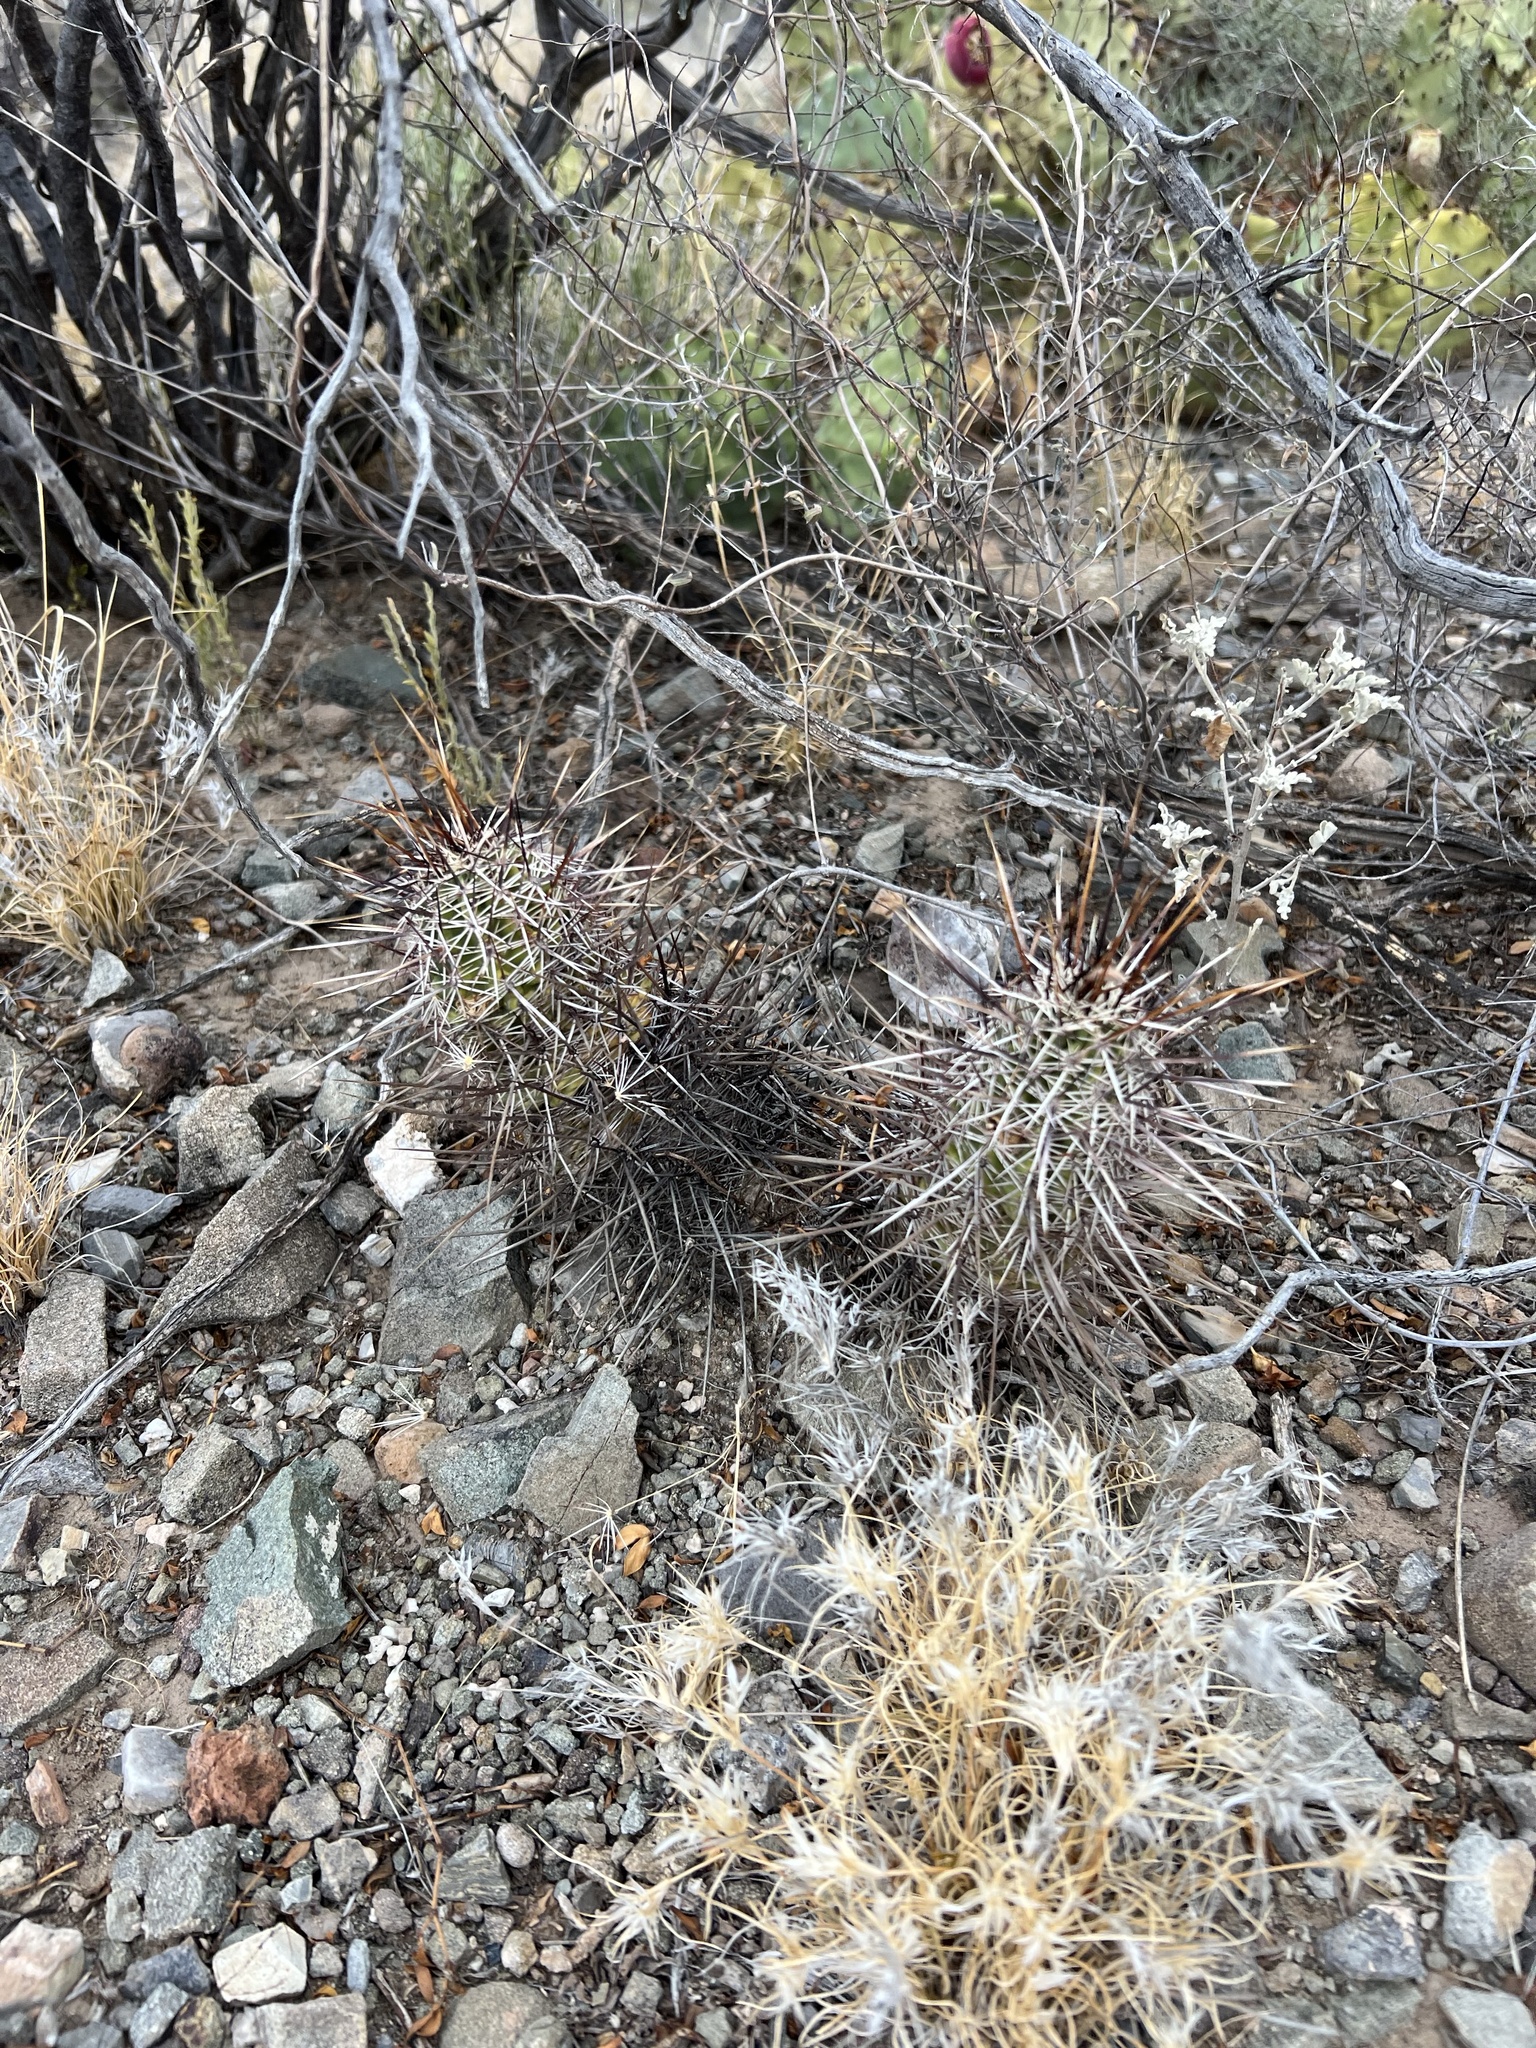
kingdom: Plantae
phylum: Tracheophyta
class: Magnoliopsida
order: Caryophyllales
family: Cactaceae
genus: Echinocereus
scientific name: Echinocereus fasciculatus
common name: Bundle hedgehog
